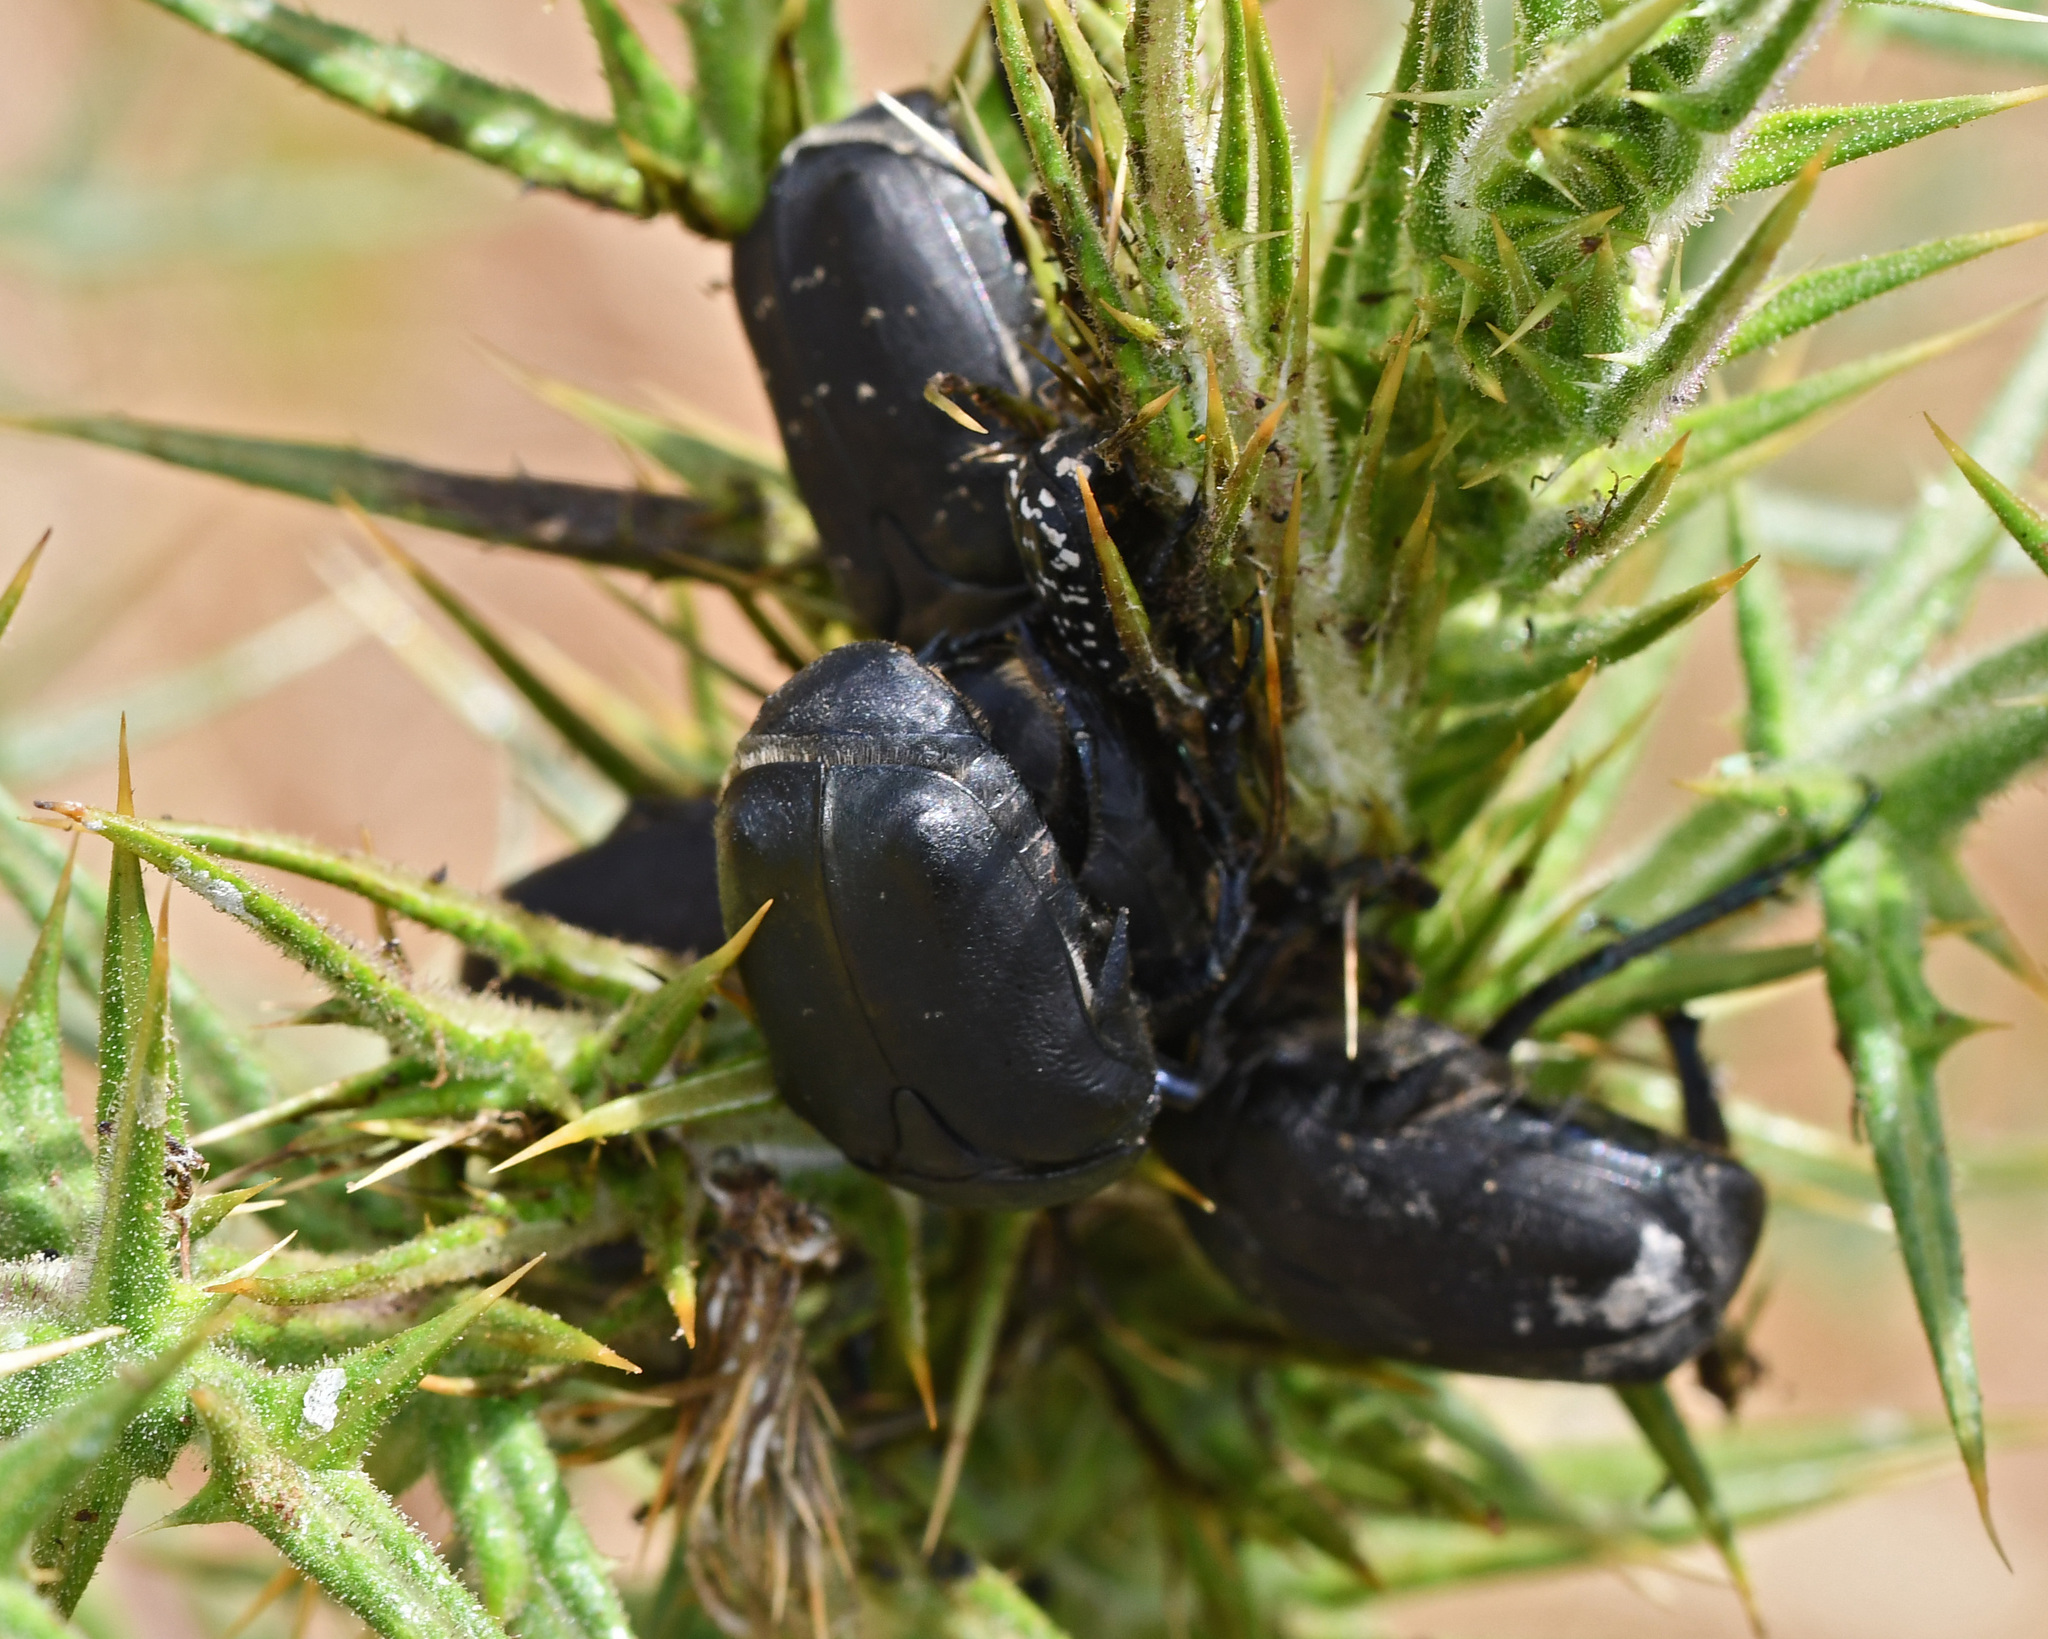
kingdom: Animalia
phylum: Arthropoda
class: Insecta
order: Coleoptera
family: Scarabaeidae
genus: Protaetia
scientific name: Protaetia afflicta
